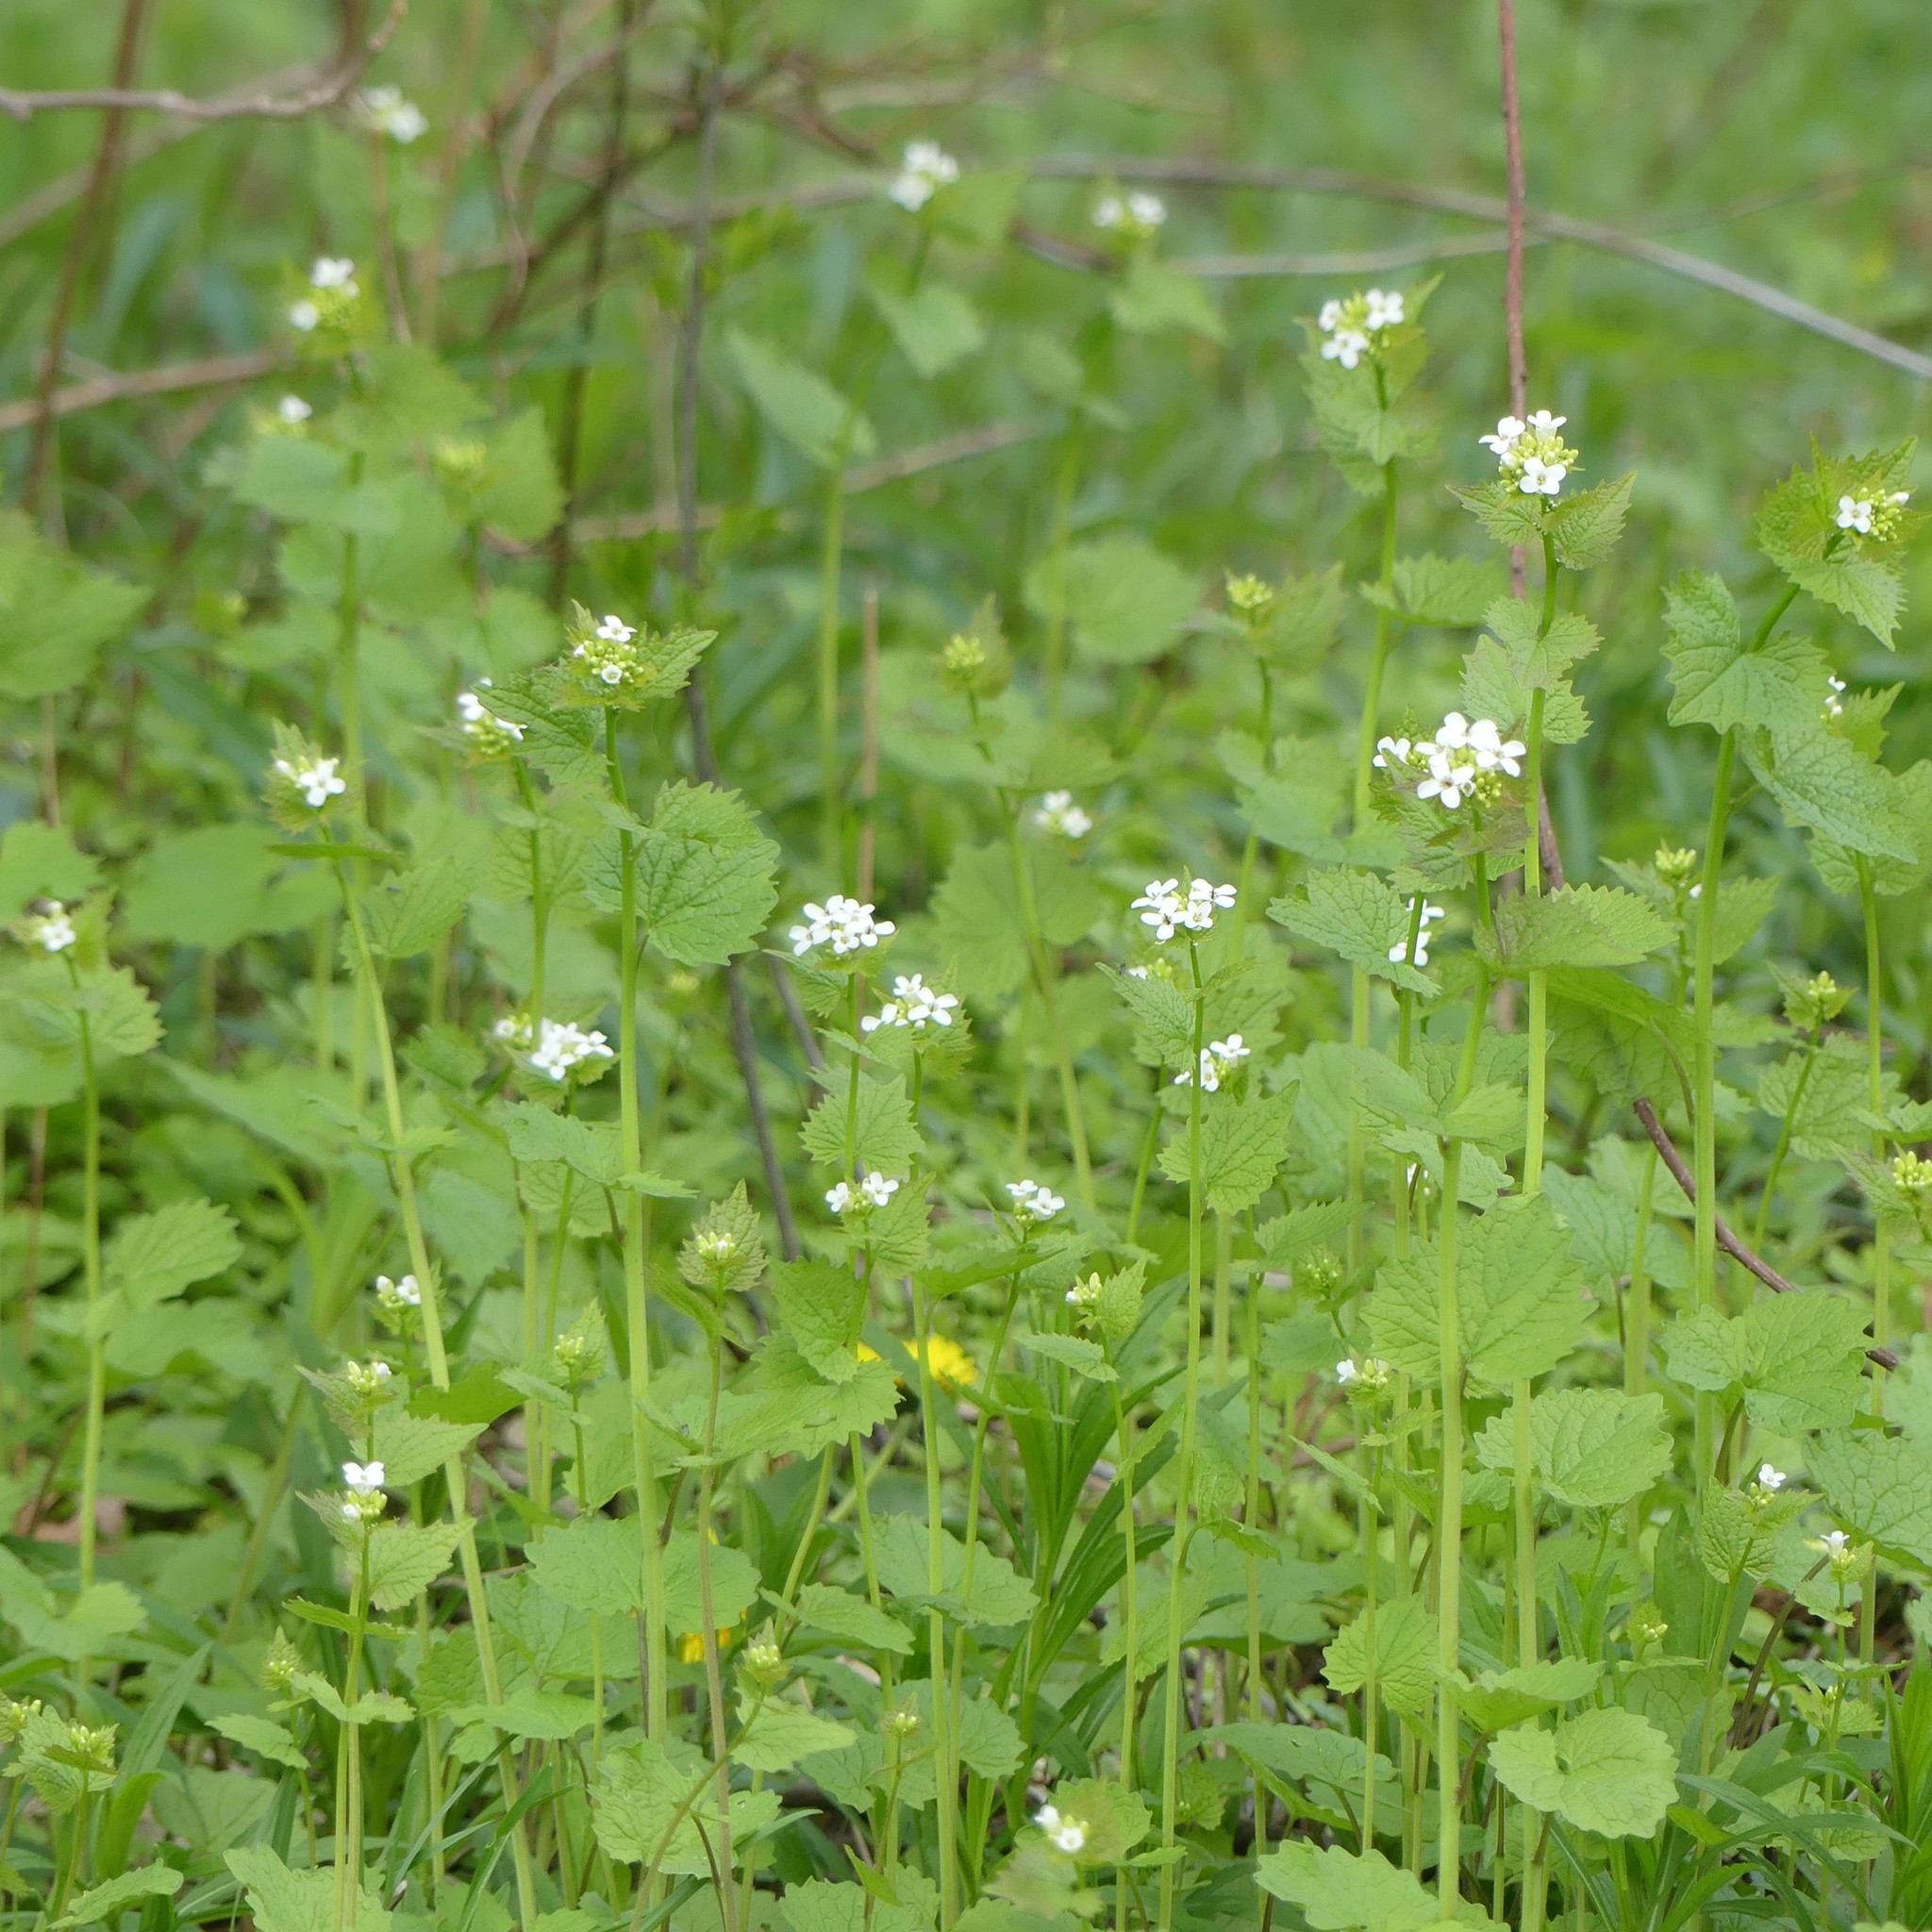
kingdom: Plantae
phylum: Tracheophyta
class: Magnoliopsida
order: Brassicales
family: Brassicaceae
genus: Alliaria
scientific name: Alliaria petiolata
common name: Garlic mustard
